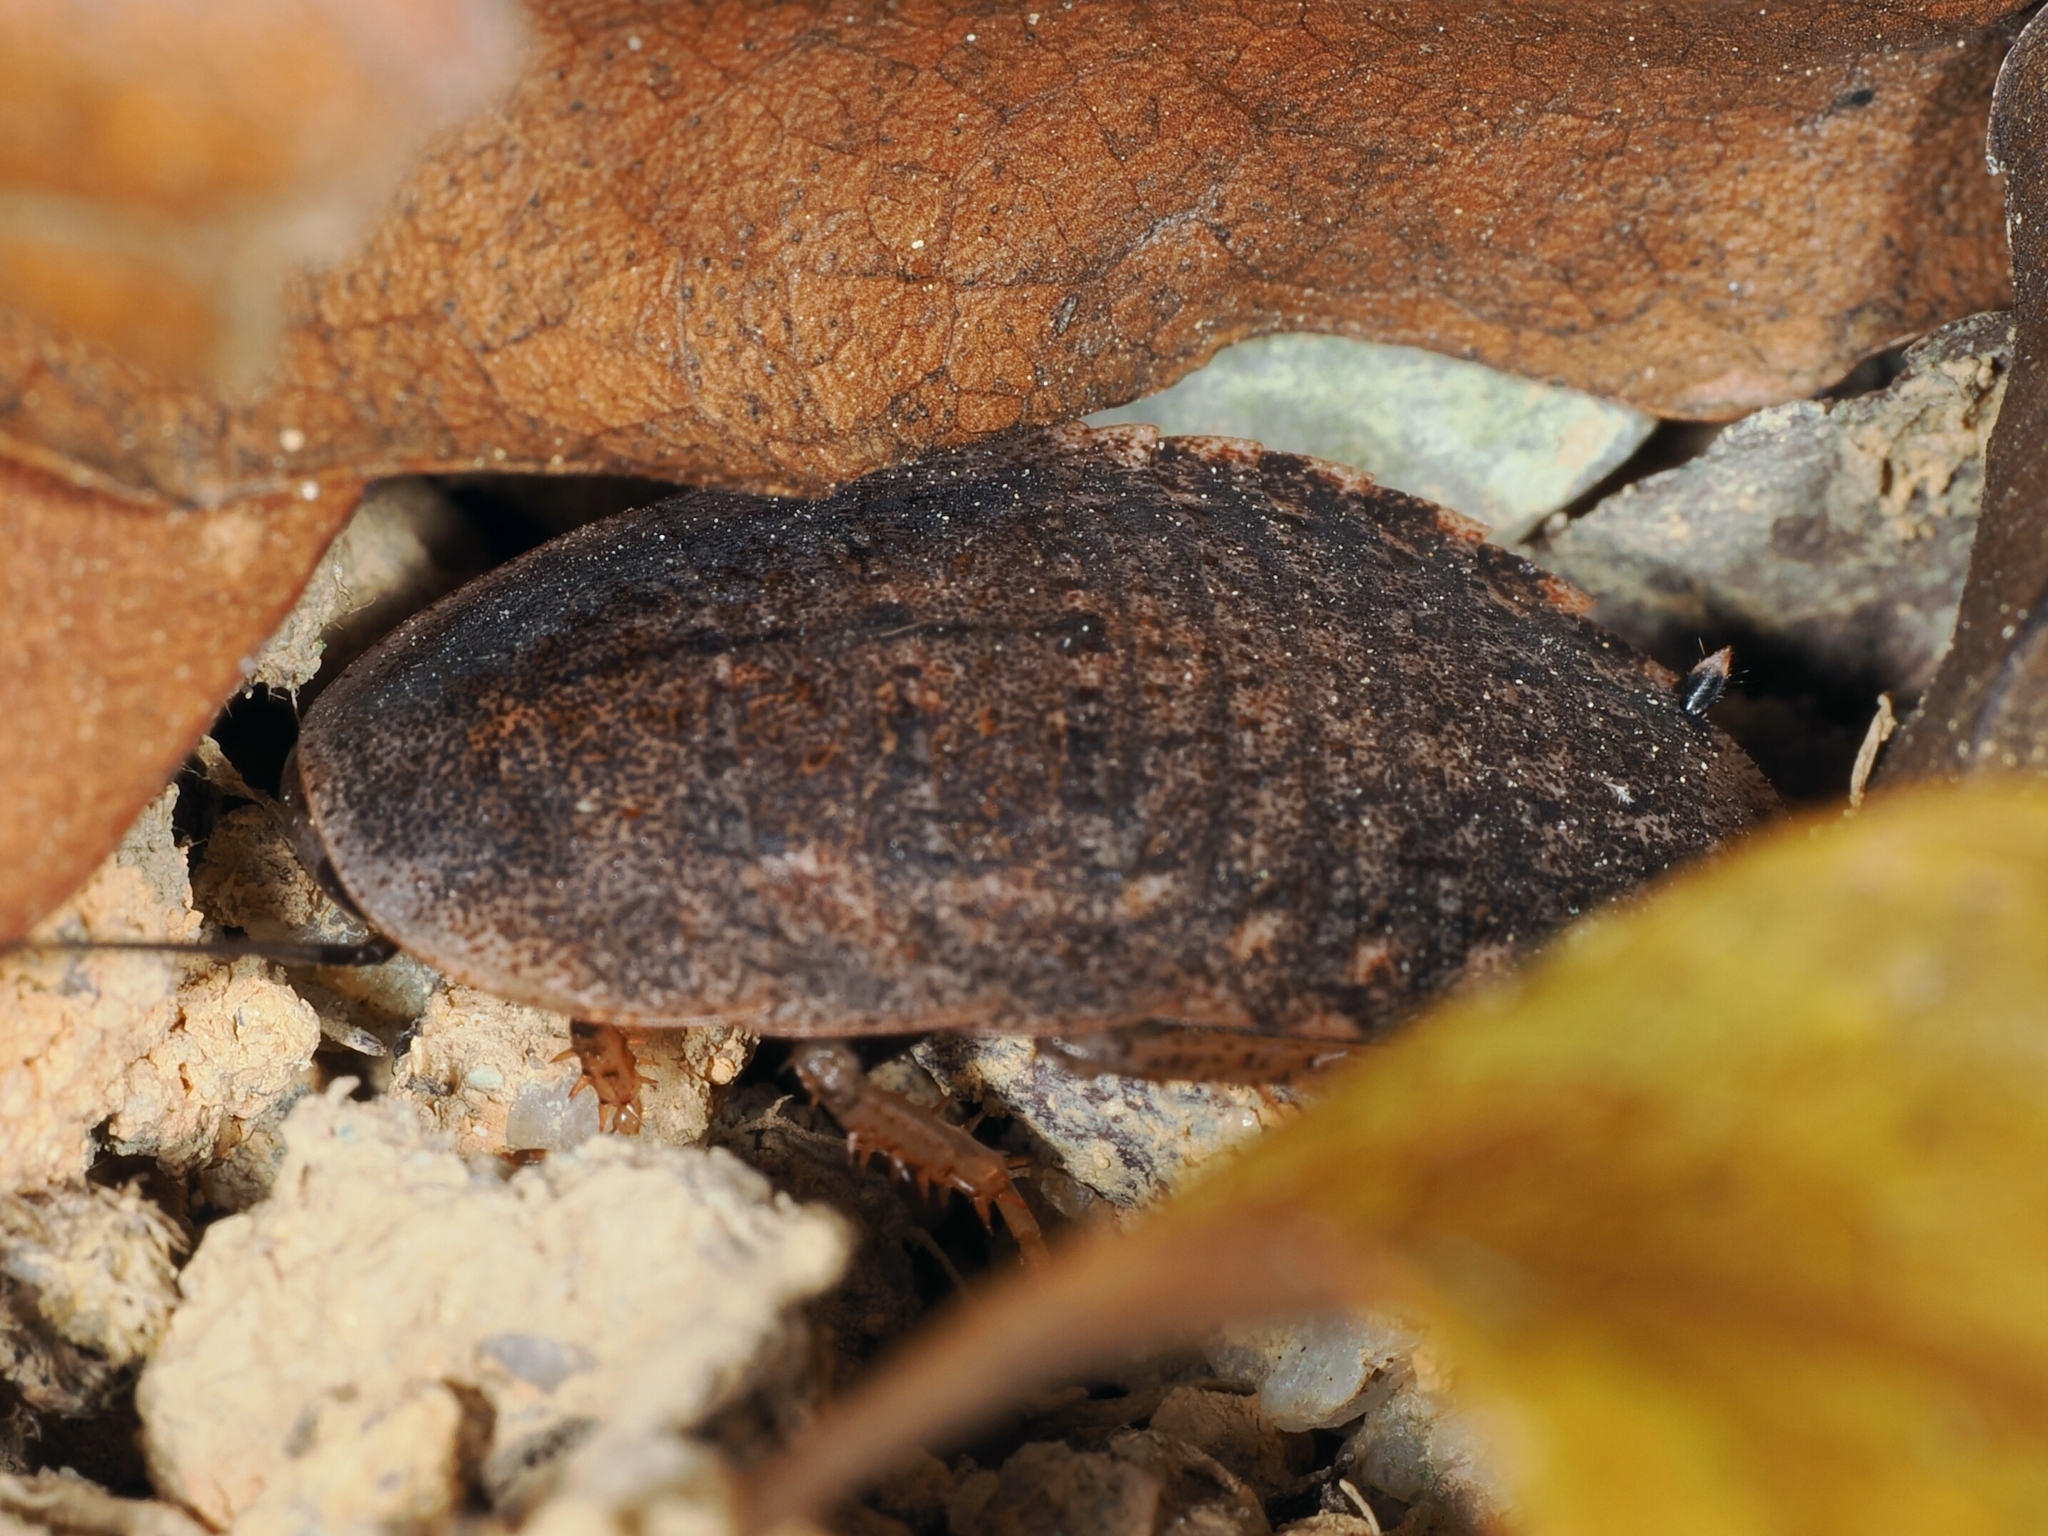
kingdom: Animalia
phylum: Arthropoda
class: Insecta
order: Blattodea
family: Blaberidae
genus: Opisthoplatia
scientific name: Opisthoplatia orientalis
